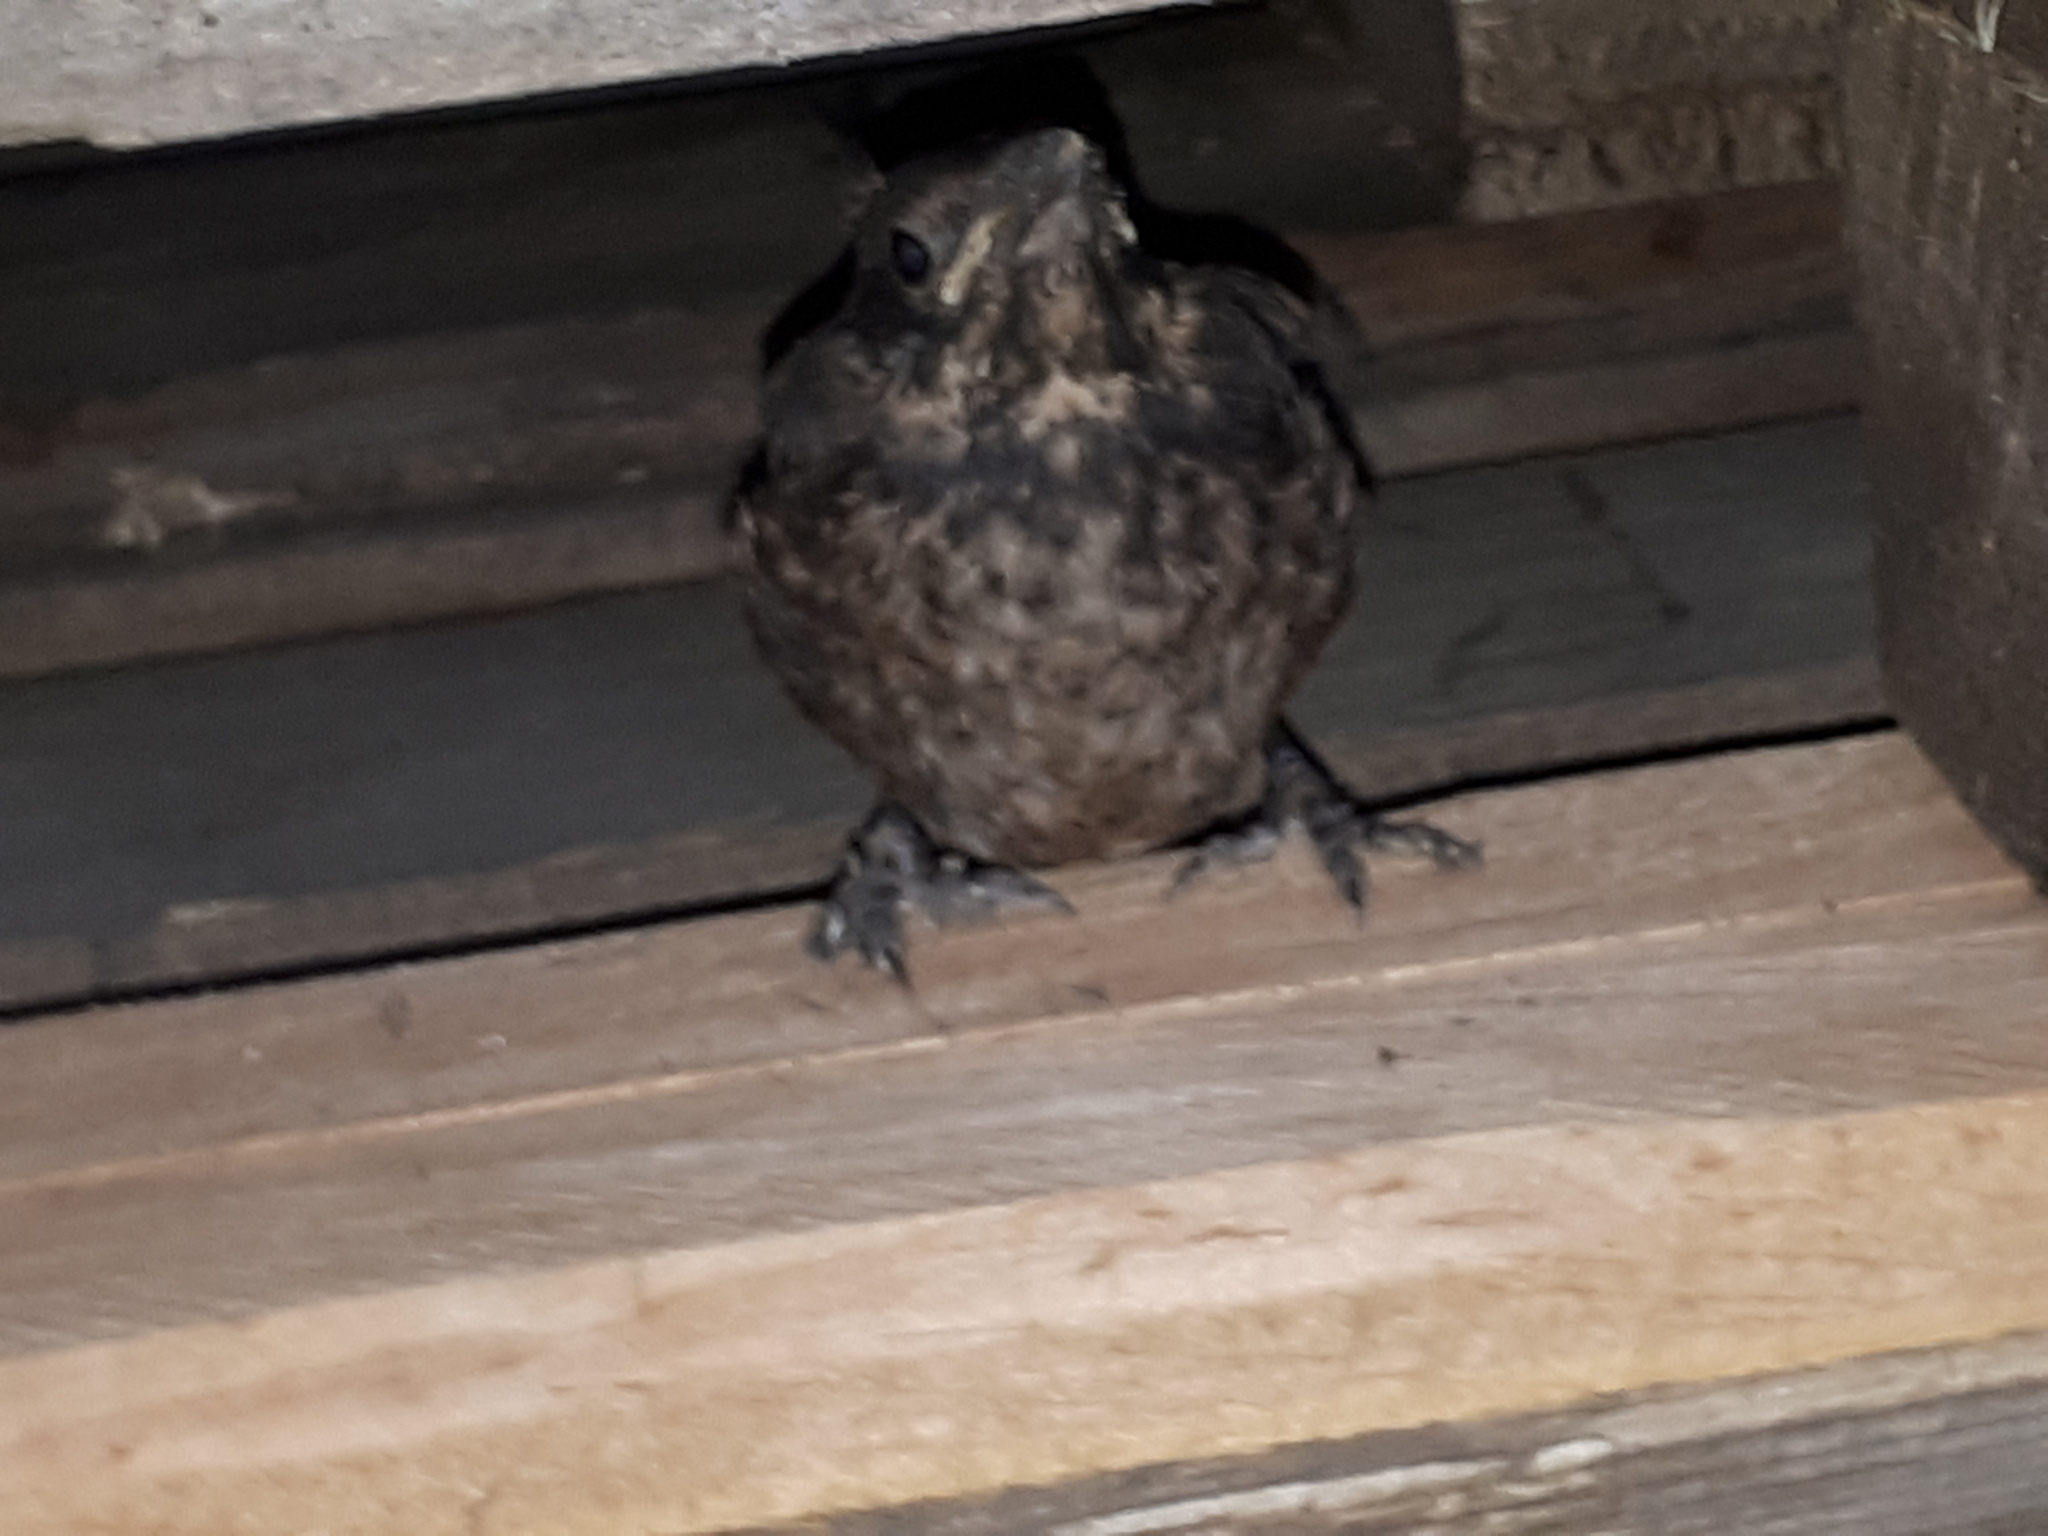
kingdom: Animalia
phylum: Chordata
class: Aves
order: Passeriformes
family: Turdidae
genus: Turdus
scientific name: Turdus merula
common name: Common blackbird
